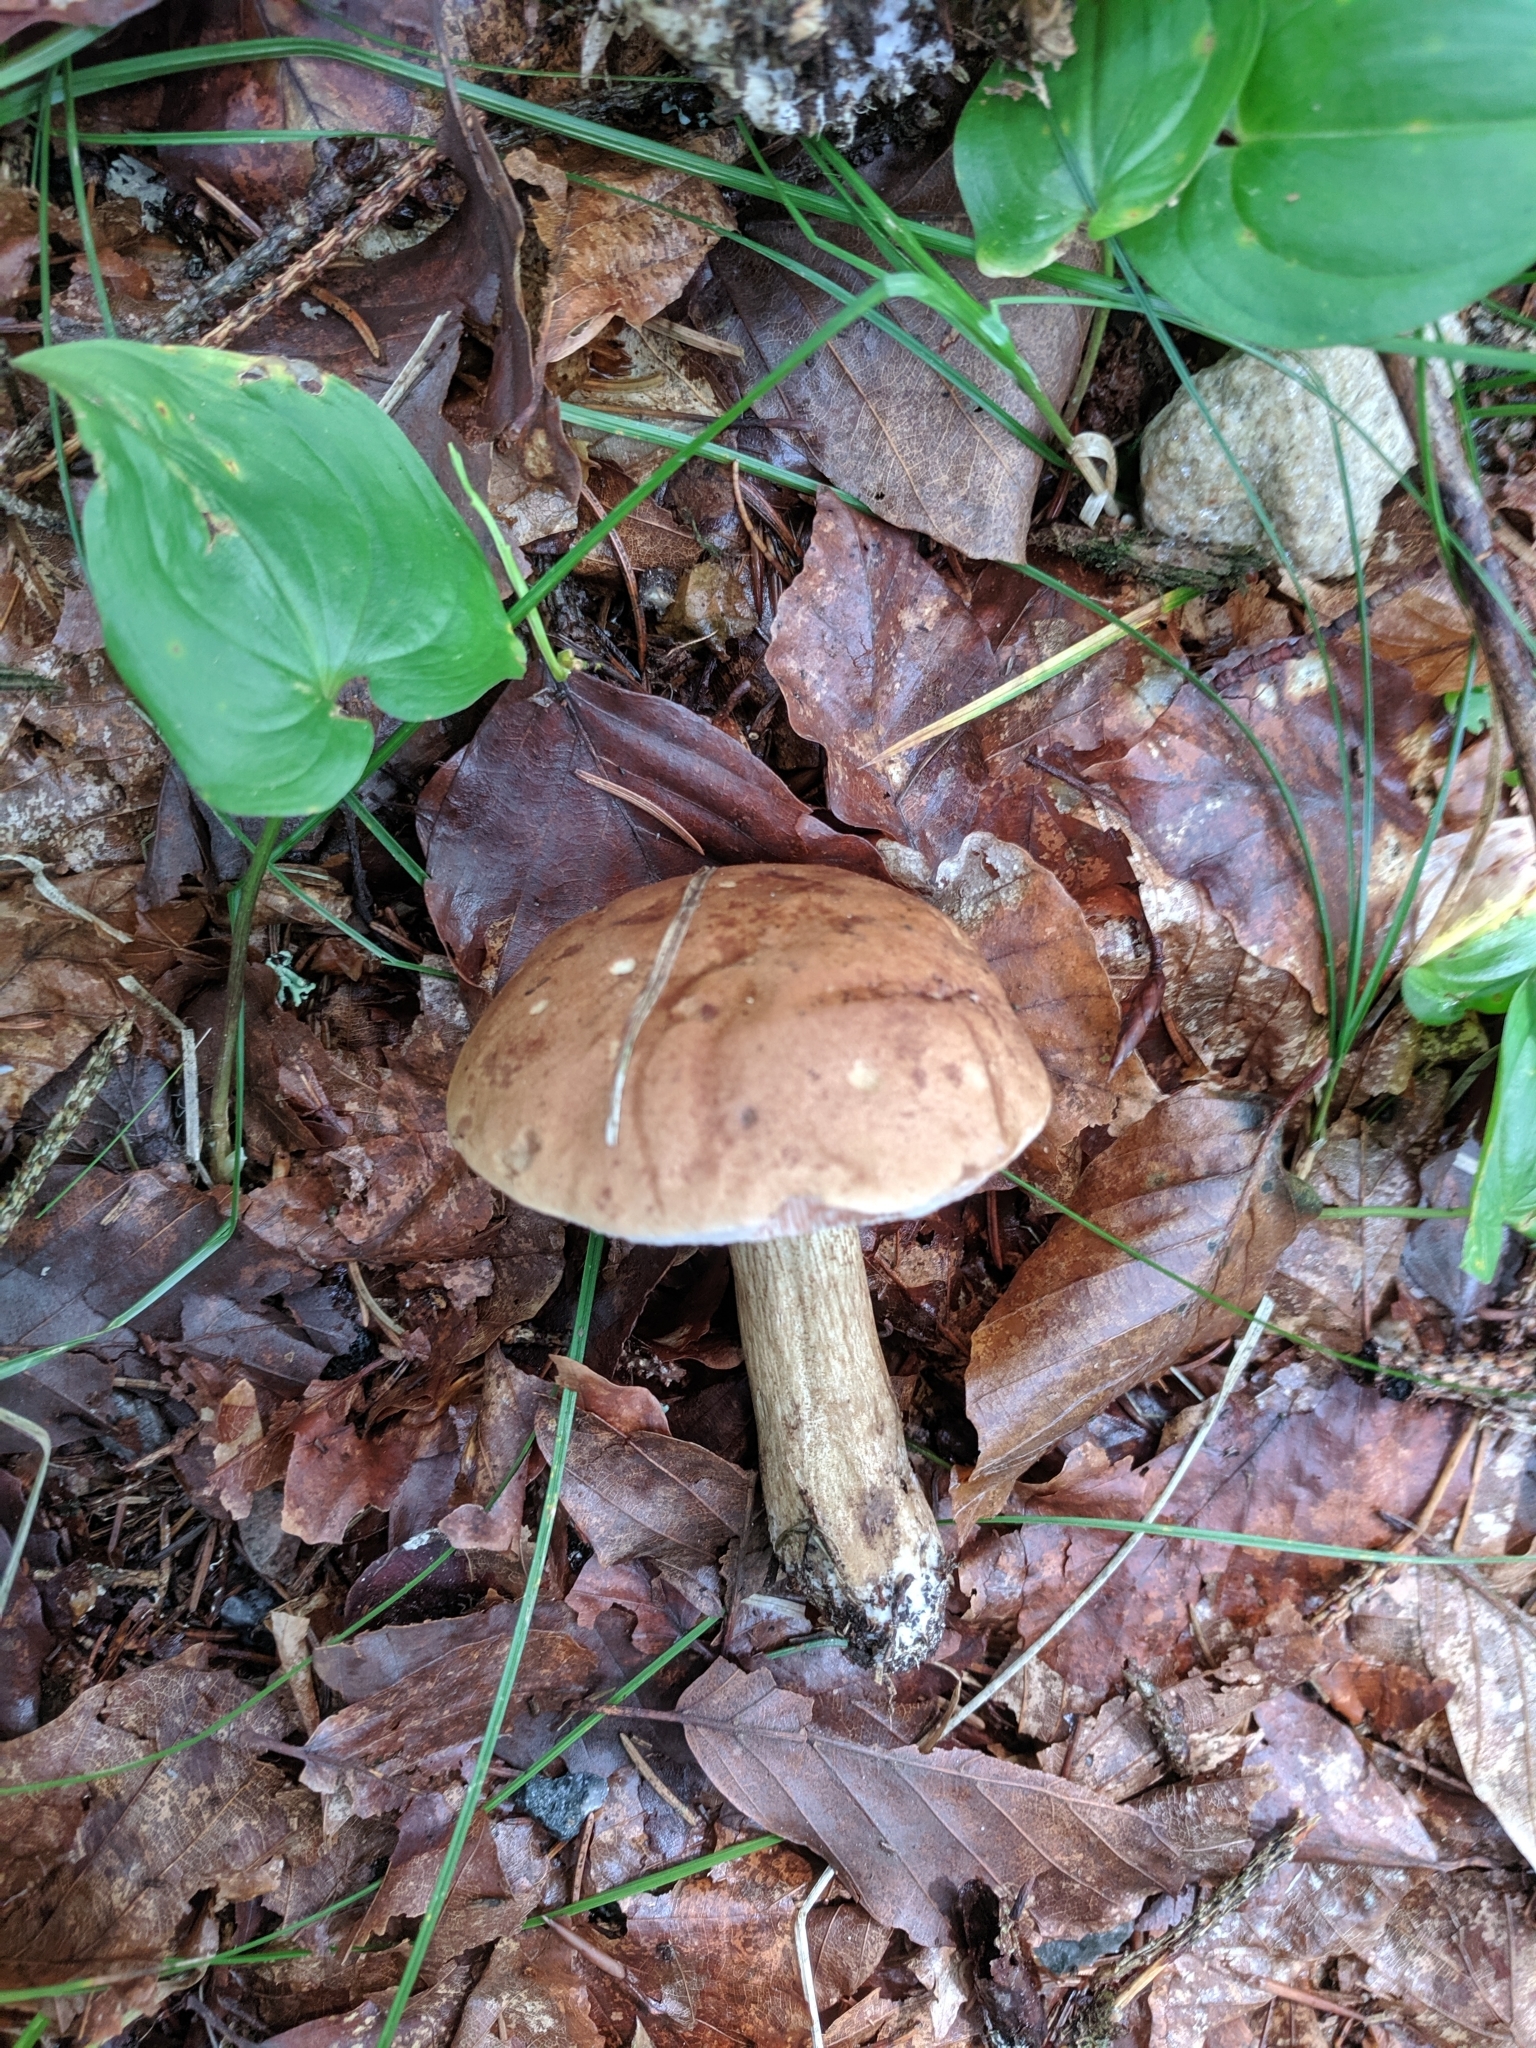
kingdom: Fungi
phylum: Basidiomycota
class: Agaricomycetes
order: Boletales
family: Boletaceae
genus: Tylopilus
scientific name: Tylopilus felleus
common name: Bitter bolete
